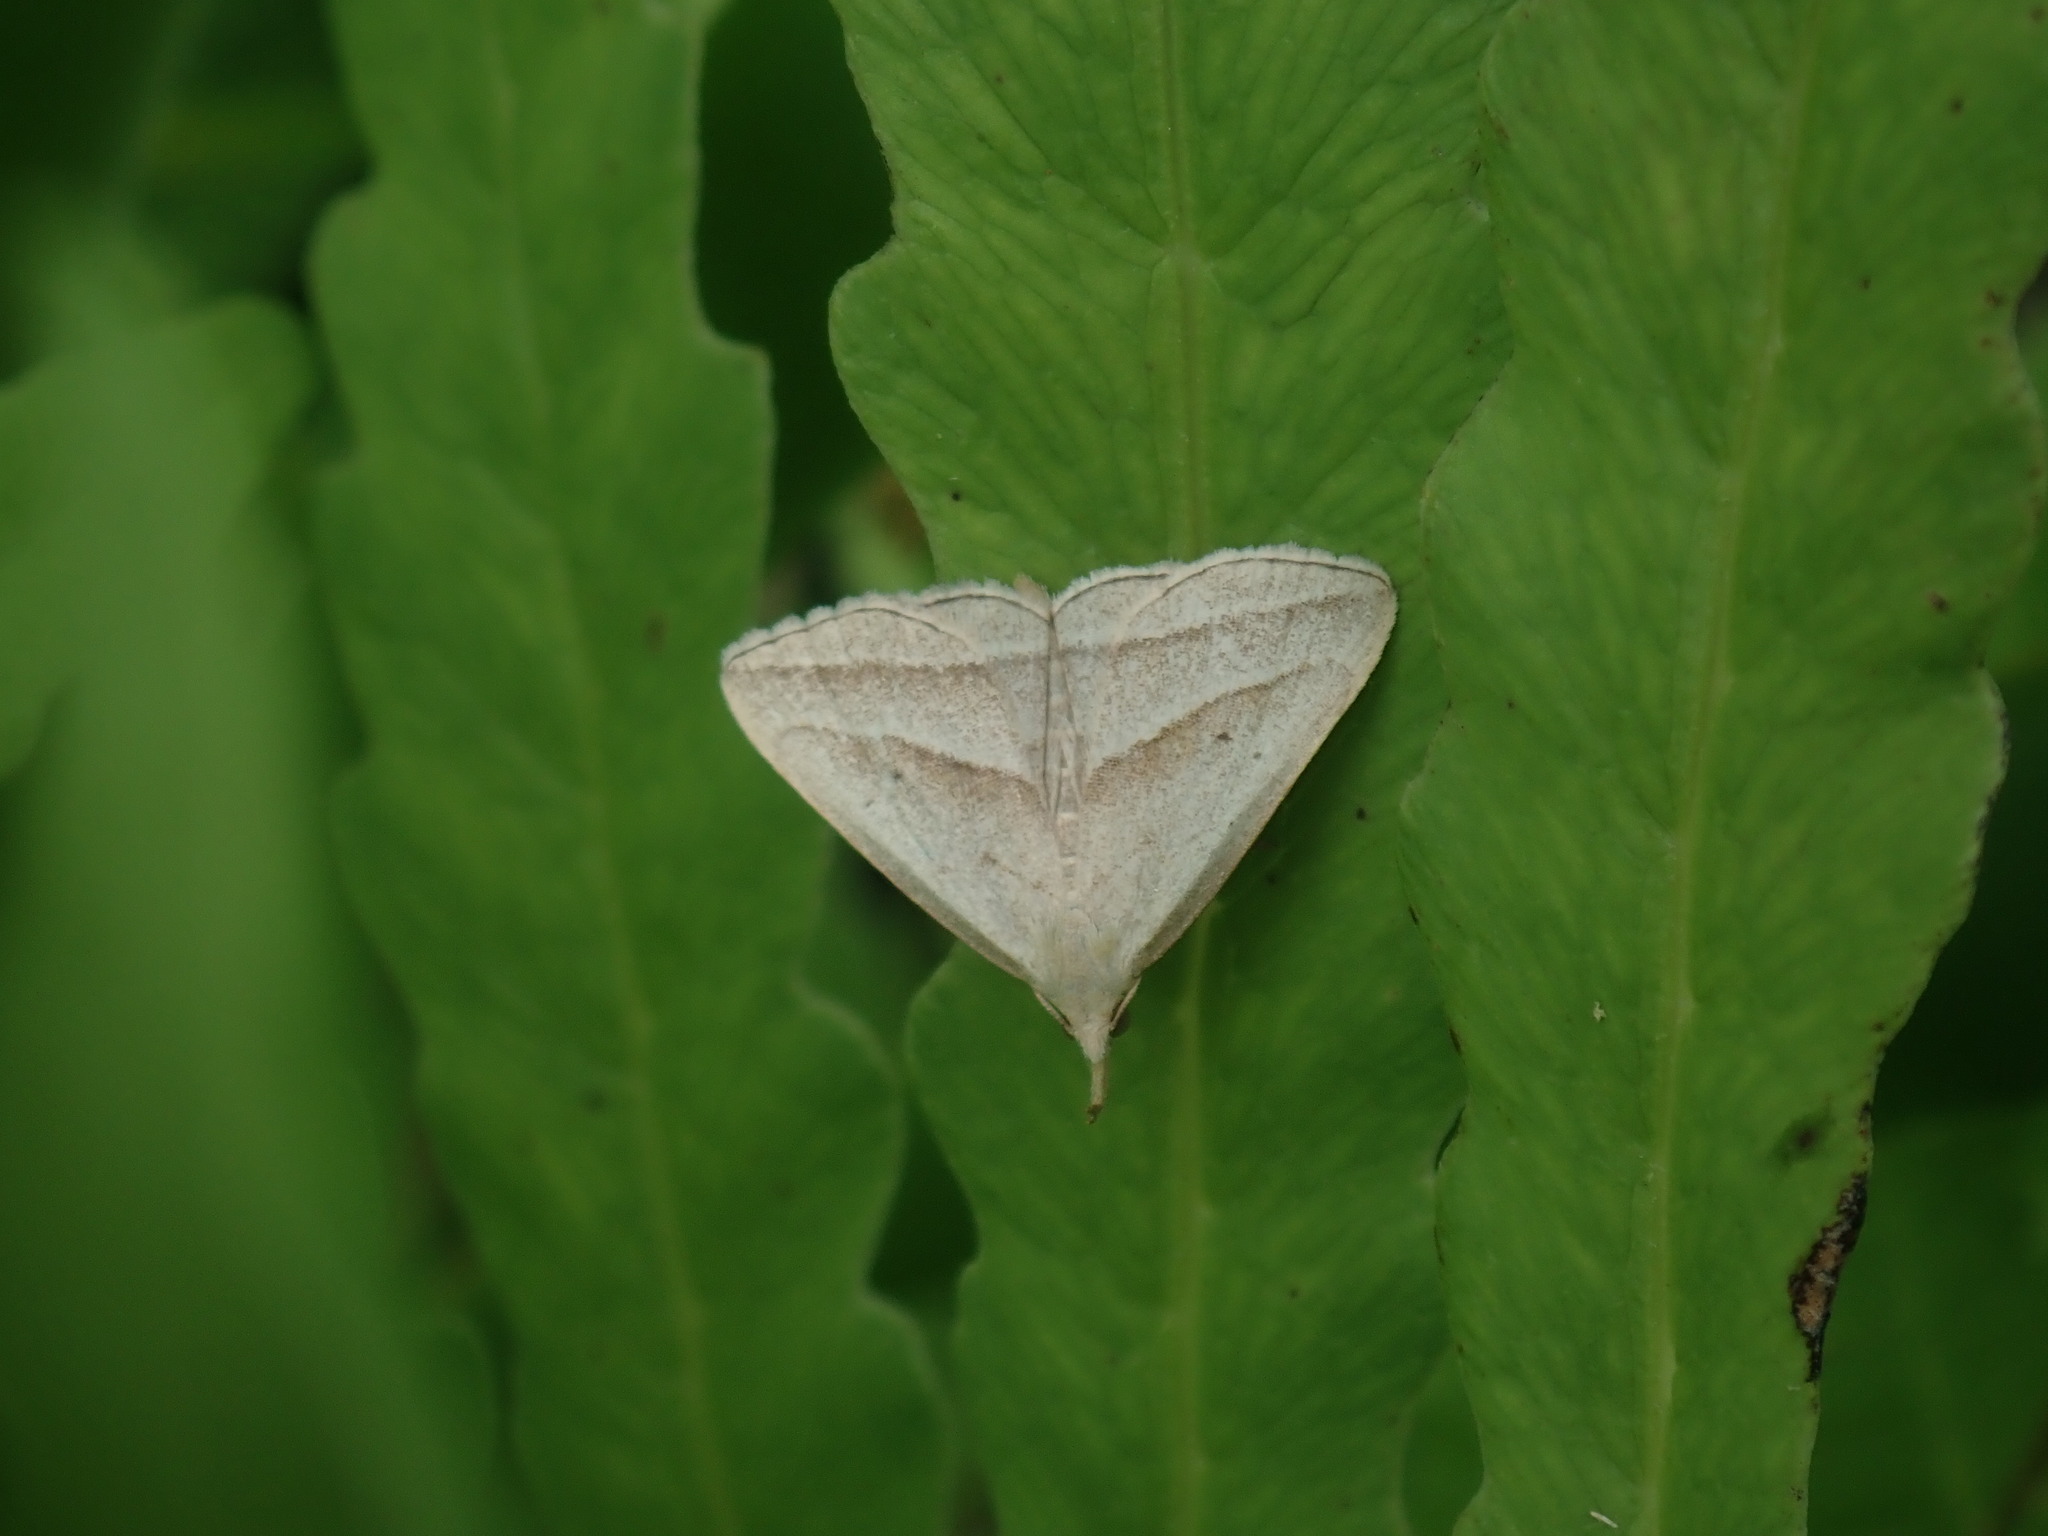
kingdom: Animalia
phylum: Arthropoda
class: Insecta
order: Lepidoptera
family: Erebidae
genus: Macrochilo
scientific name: Macrochilo absorptalis
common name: Slant-lined owlet
